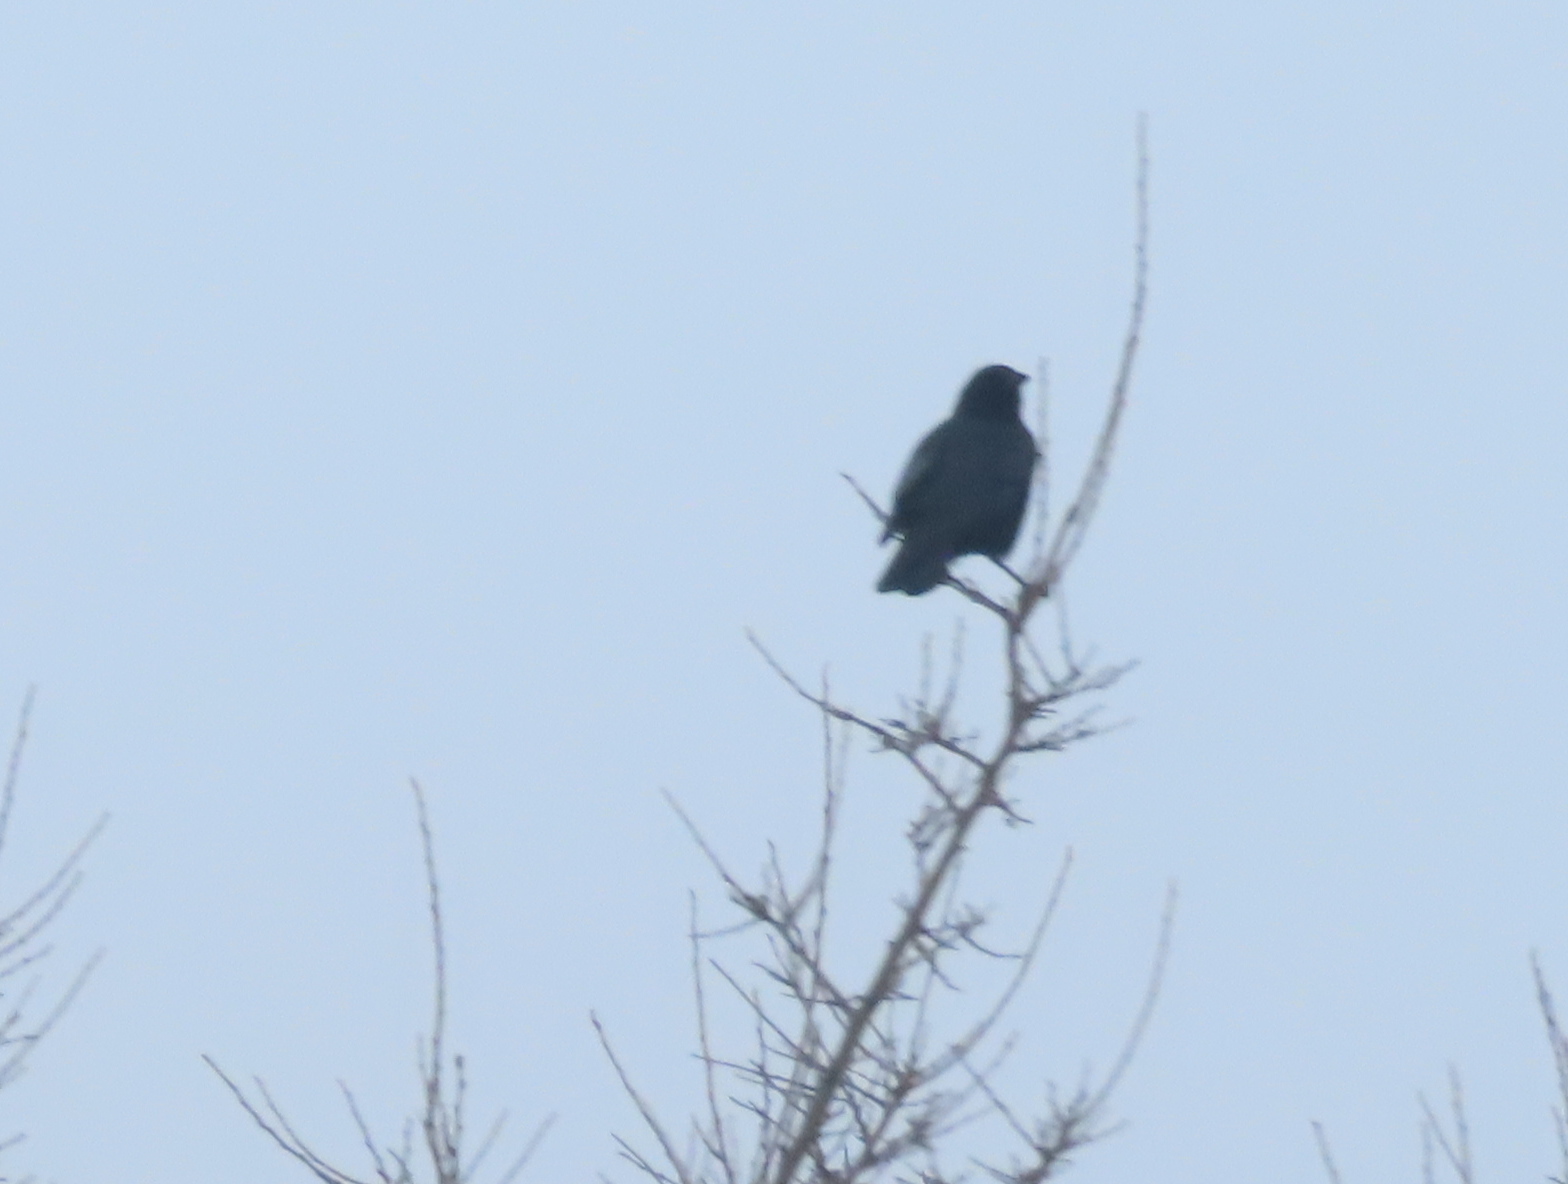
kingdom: Animalia
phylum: Chordata
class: Aves
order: Passeriformes
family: Corvidae
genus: Corvus
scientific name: Corvus brachyrhynchos
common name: American crow
